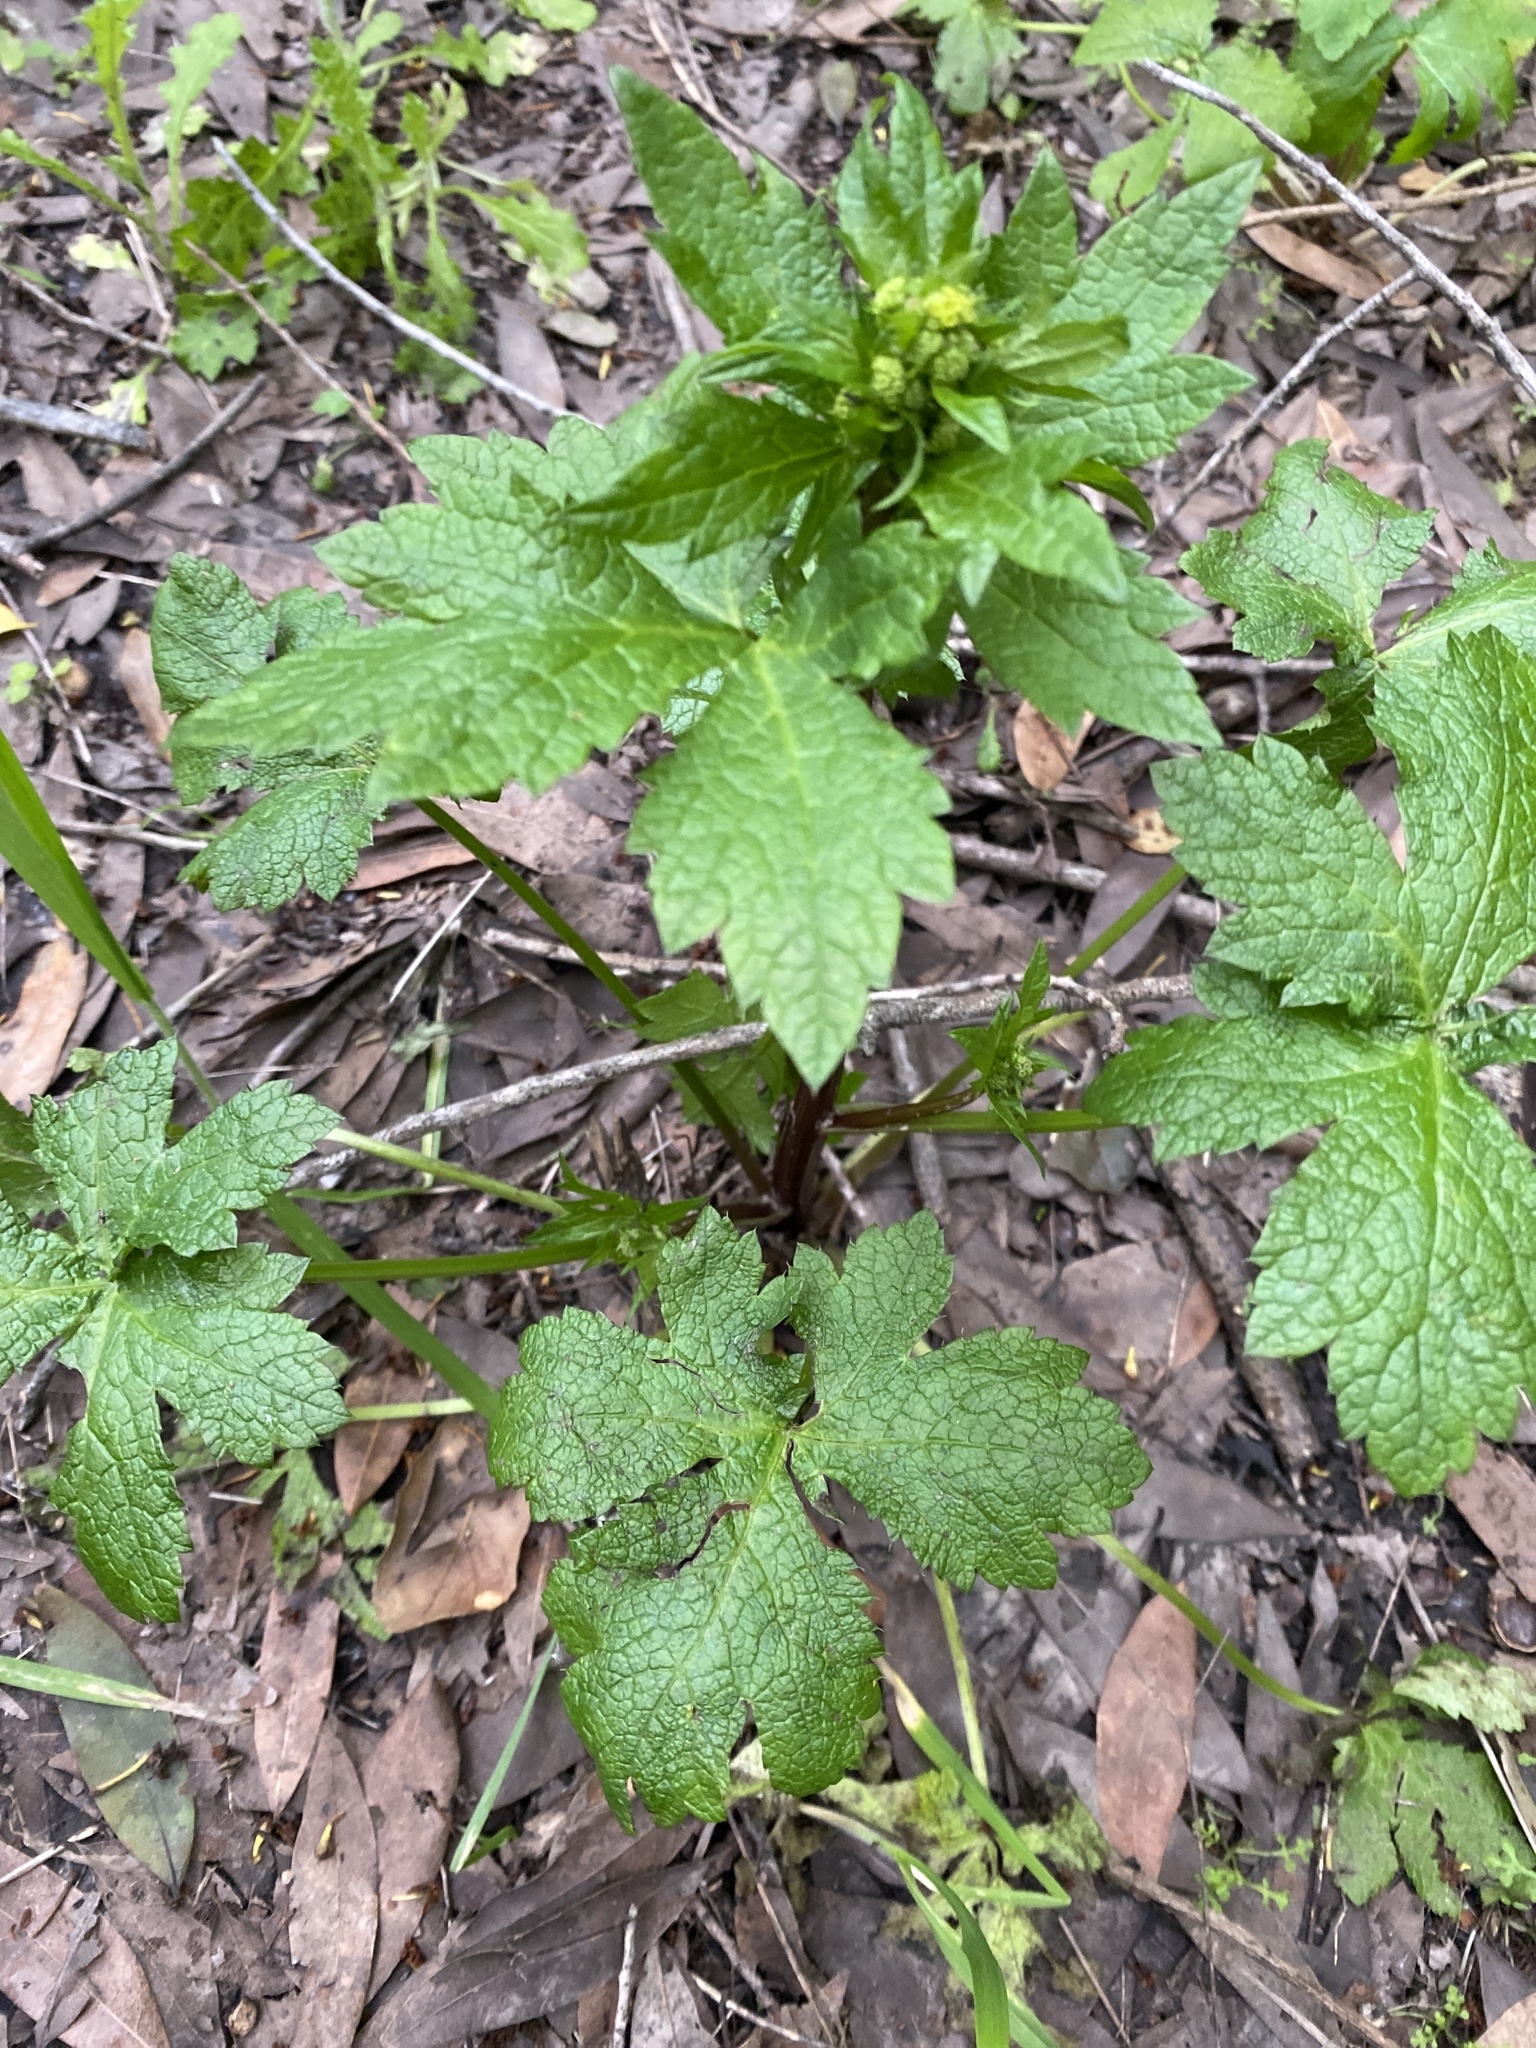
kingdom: Plantae
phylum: Tracheophyta
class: Magnoliopsida
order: Apiales
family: Apiaceae
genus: Sanicula
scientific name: Sanicula crassicaulis
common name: Western snakeroot
